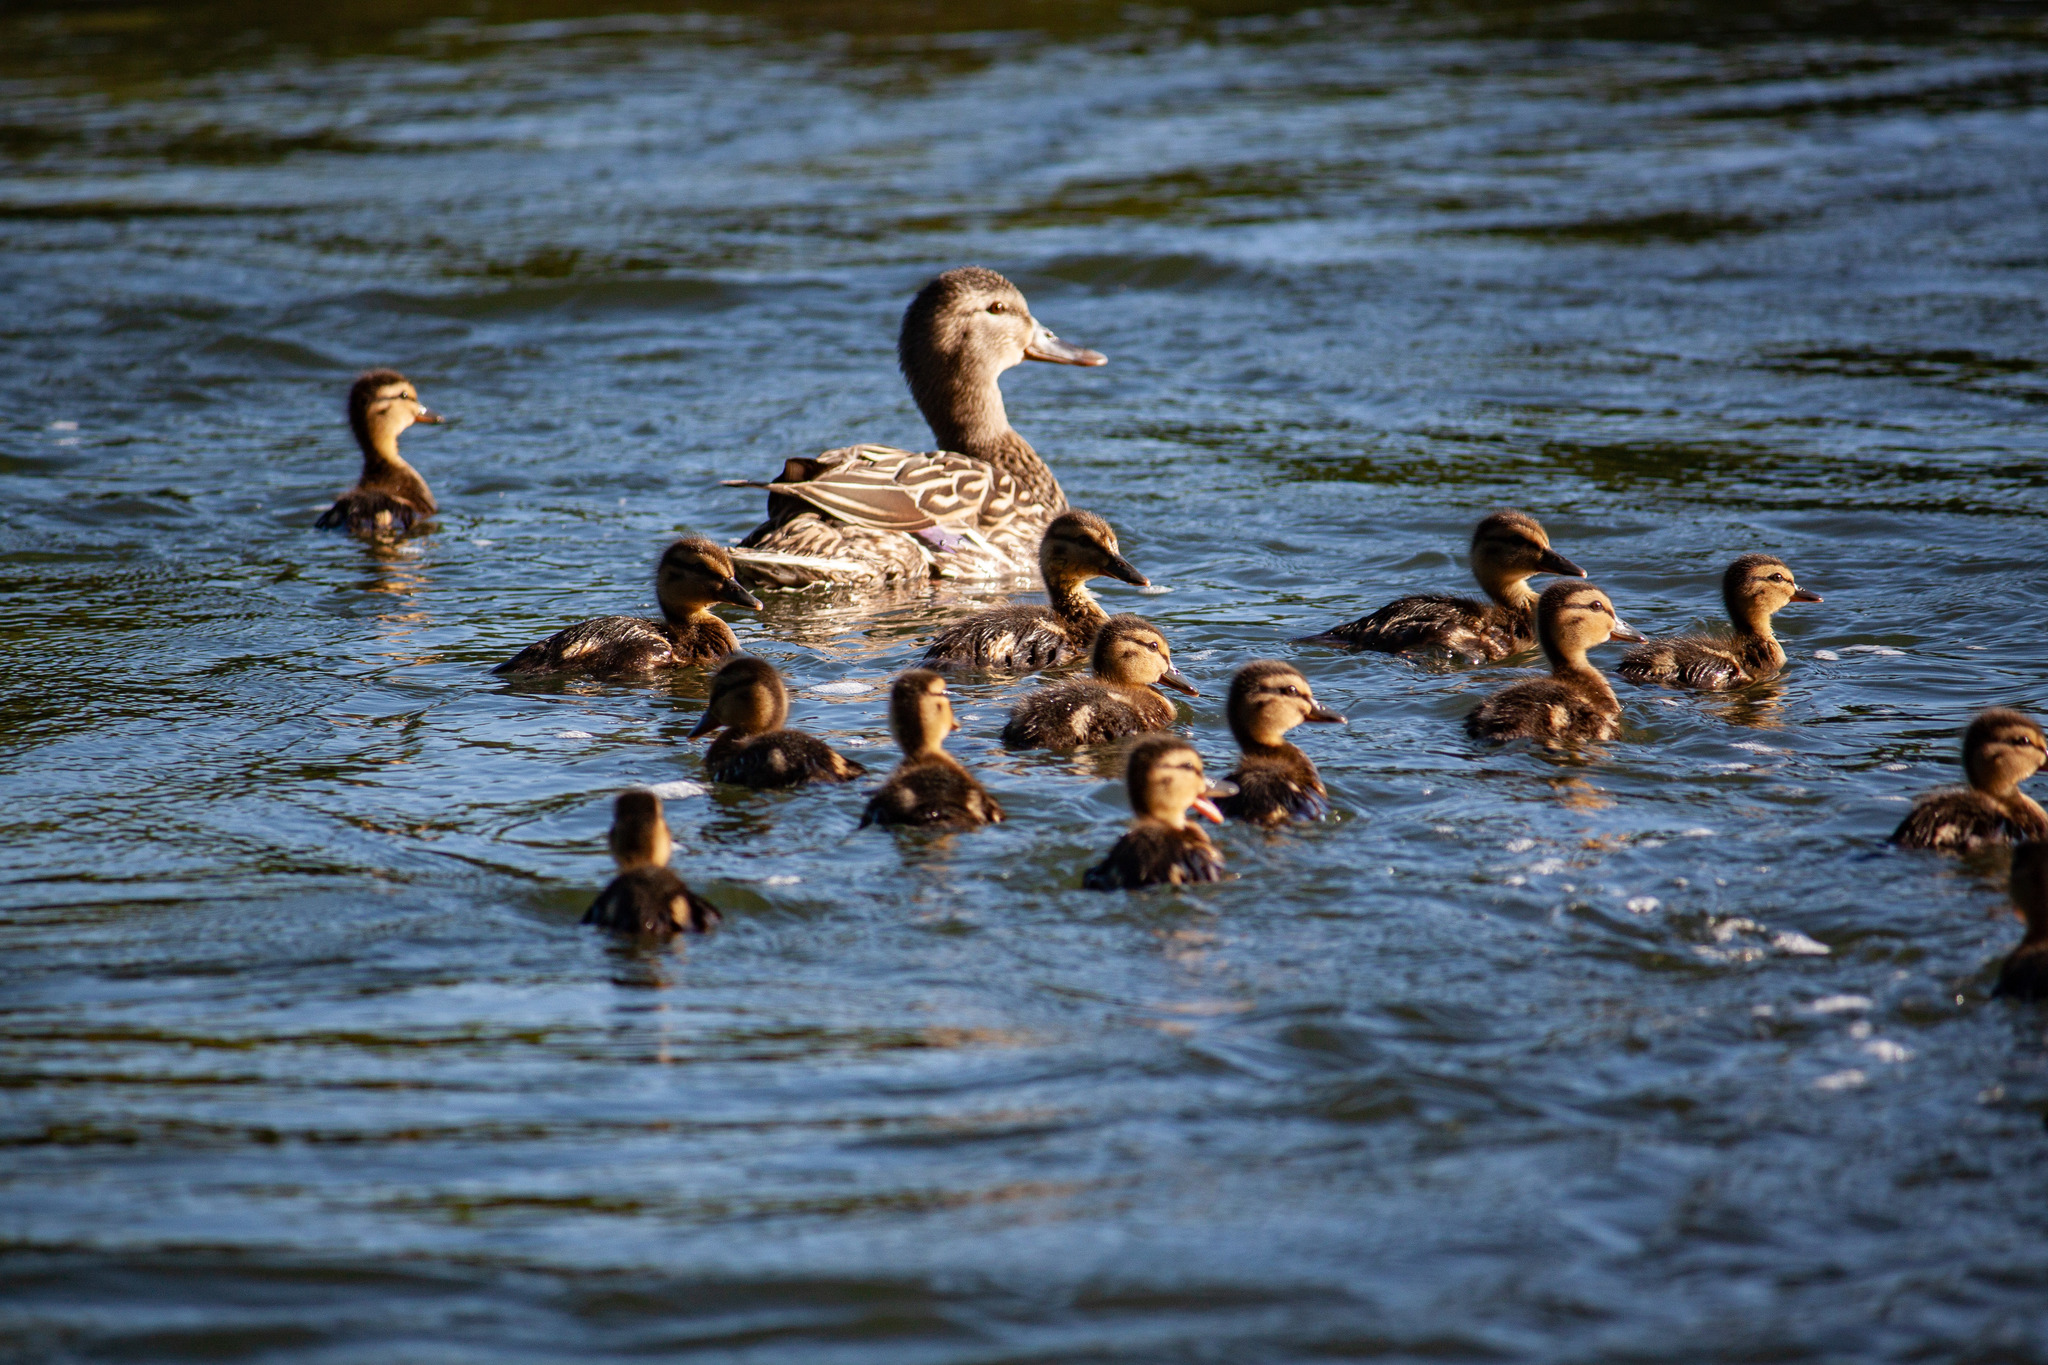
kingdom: Animalia
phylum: Chordata
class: Aves
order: Anseriformes
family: Anatidae
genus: Anas
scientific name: Anas platyrhynchos
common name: Mallard
